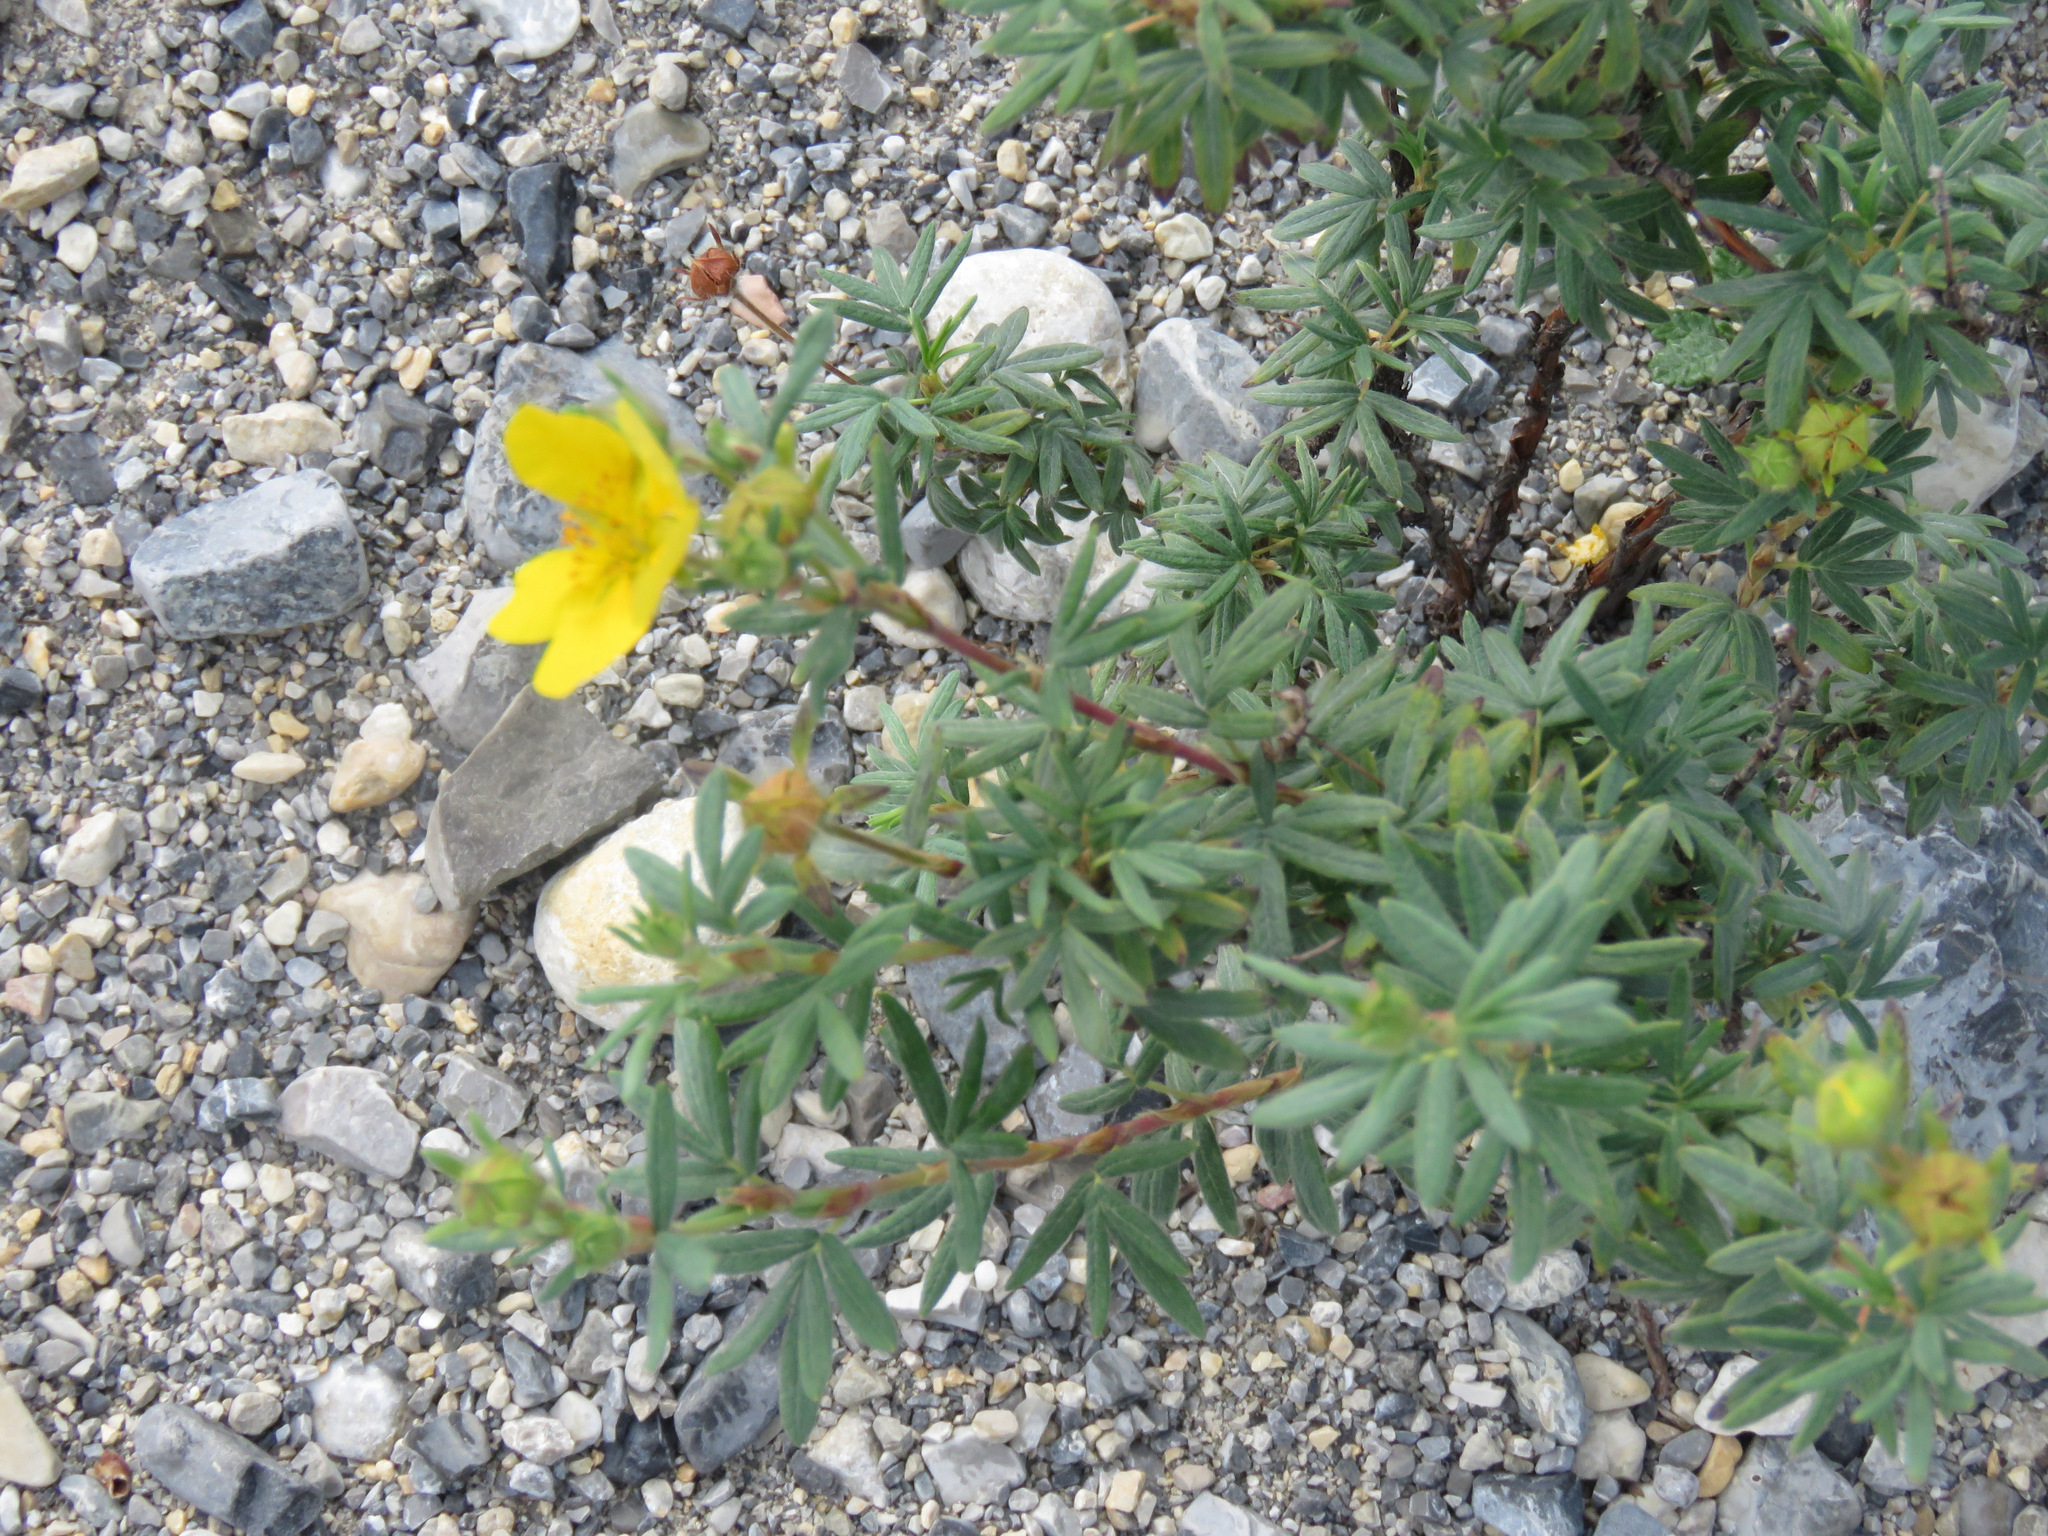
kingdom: Plantae
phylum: Tracheophyta
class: Magnoliopsida
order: Rosales
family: Rosaceae
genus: Dasiphora
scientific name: Dasiphora fruticosa
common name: Shrubby cinquefoil
